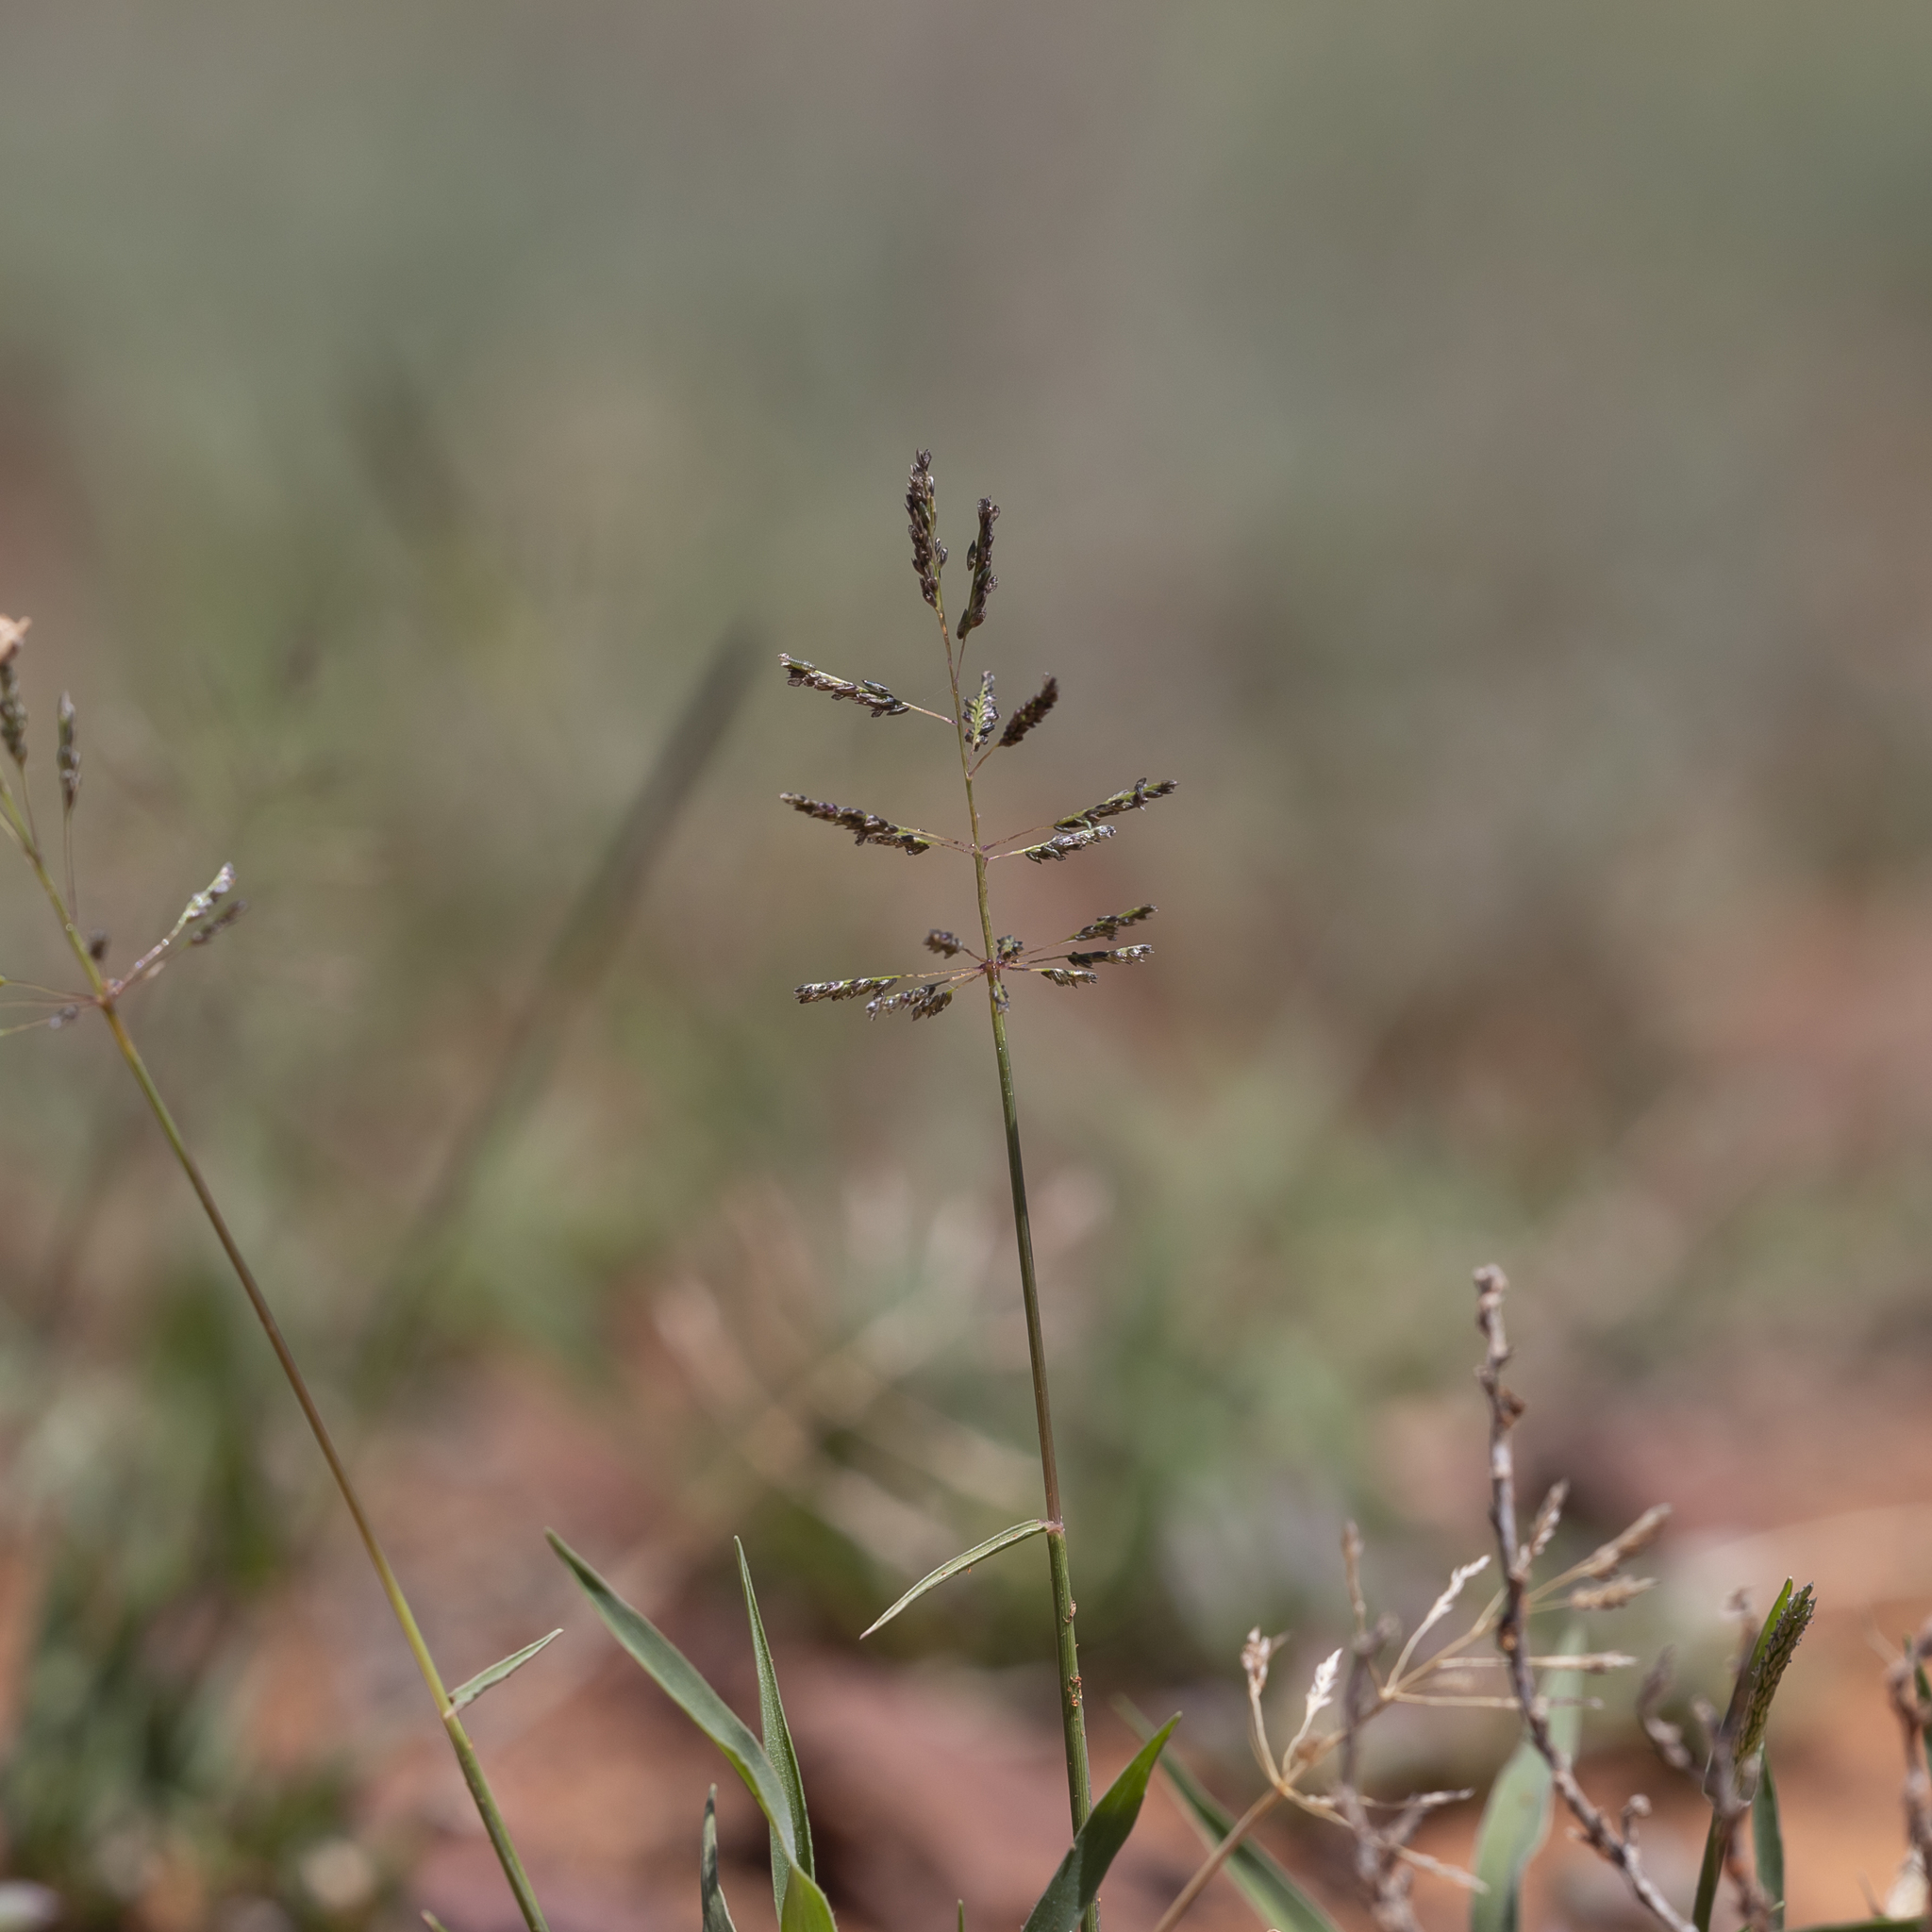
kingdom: Plantae
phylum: Tracheophyta
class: Liliopsida
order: Poales
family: Poaceae
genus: Sporobolus
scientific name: Sporobolus actinocladus
